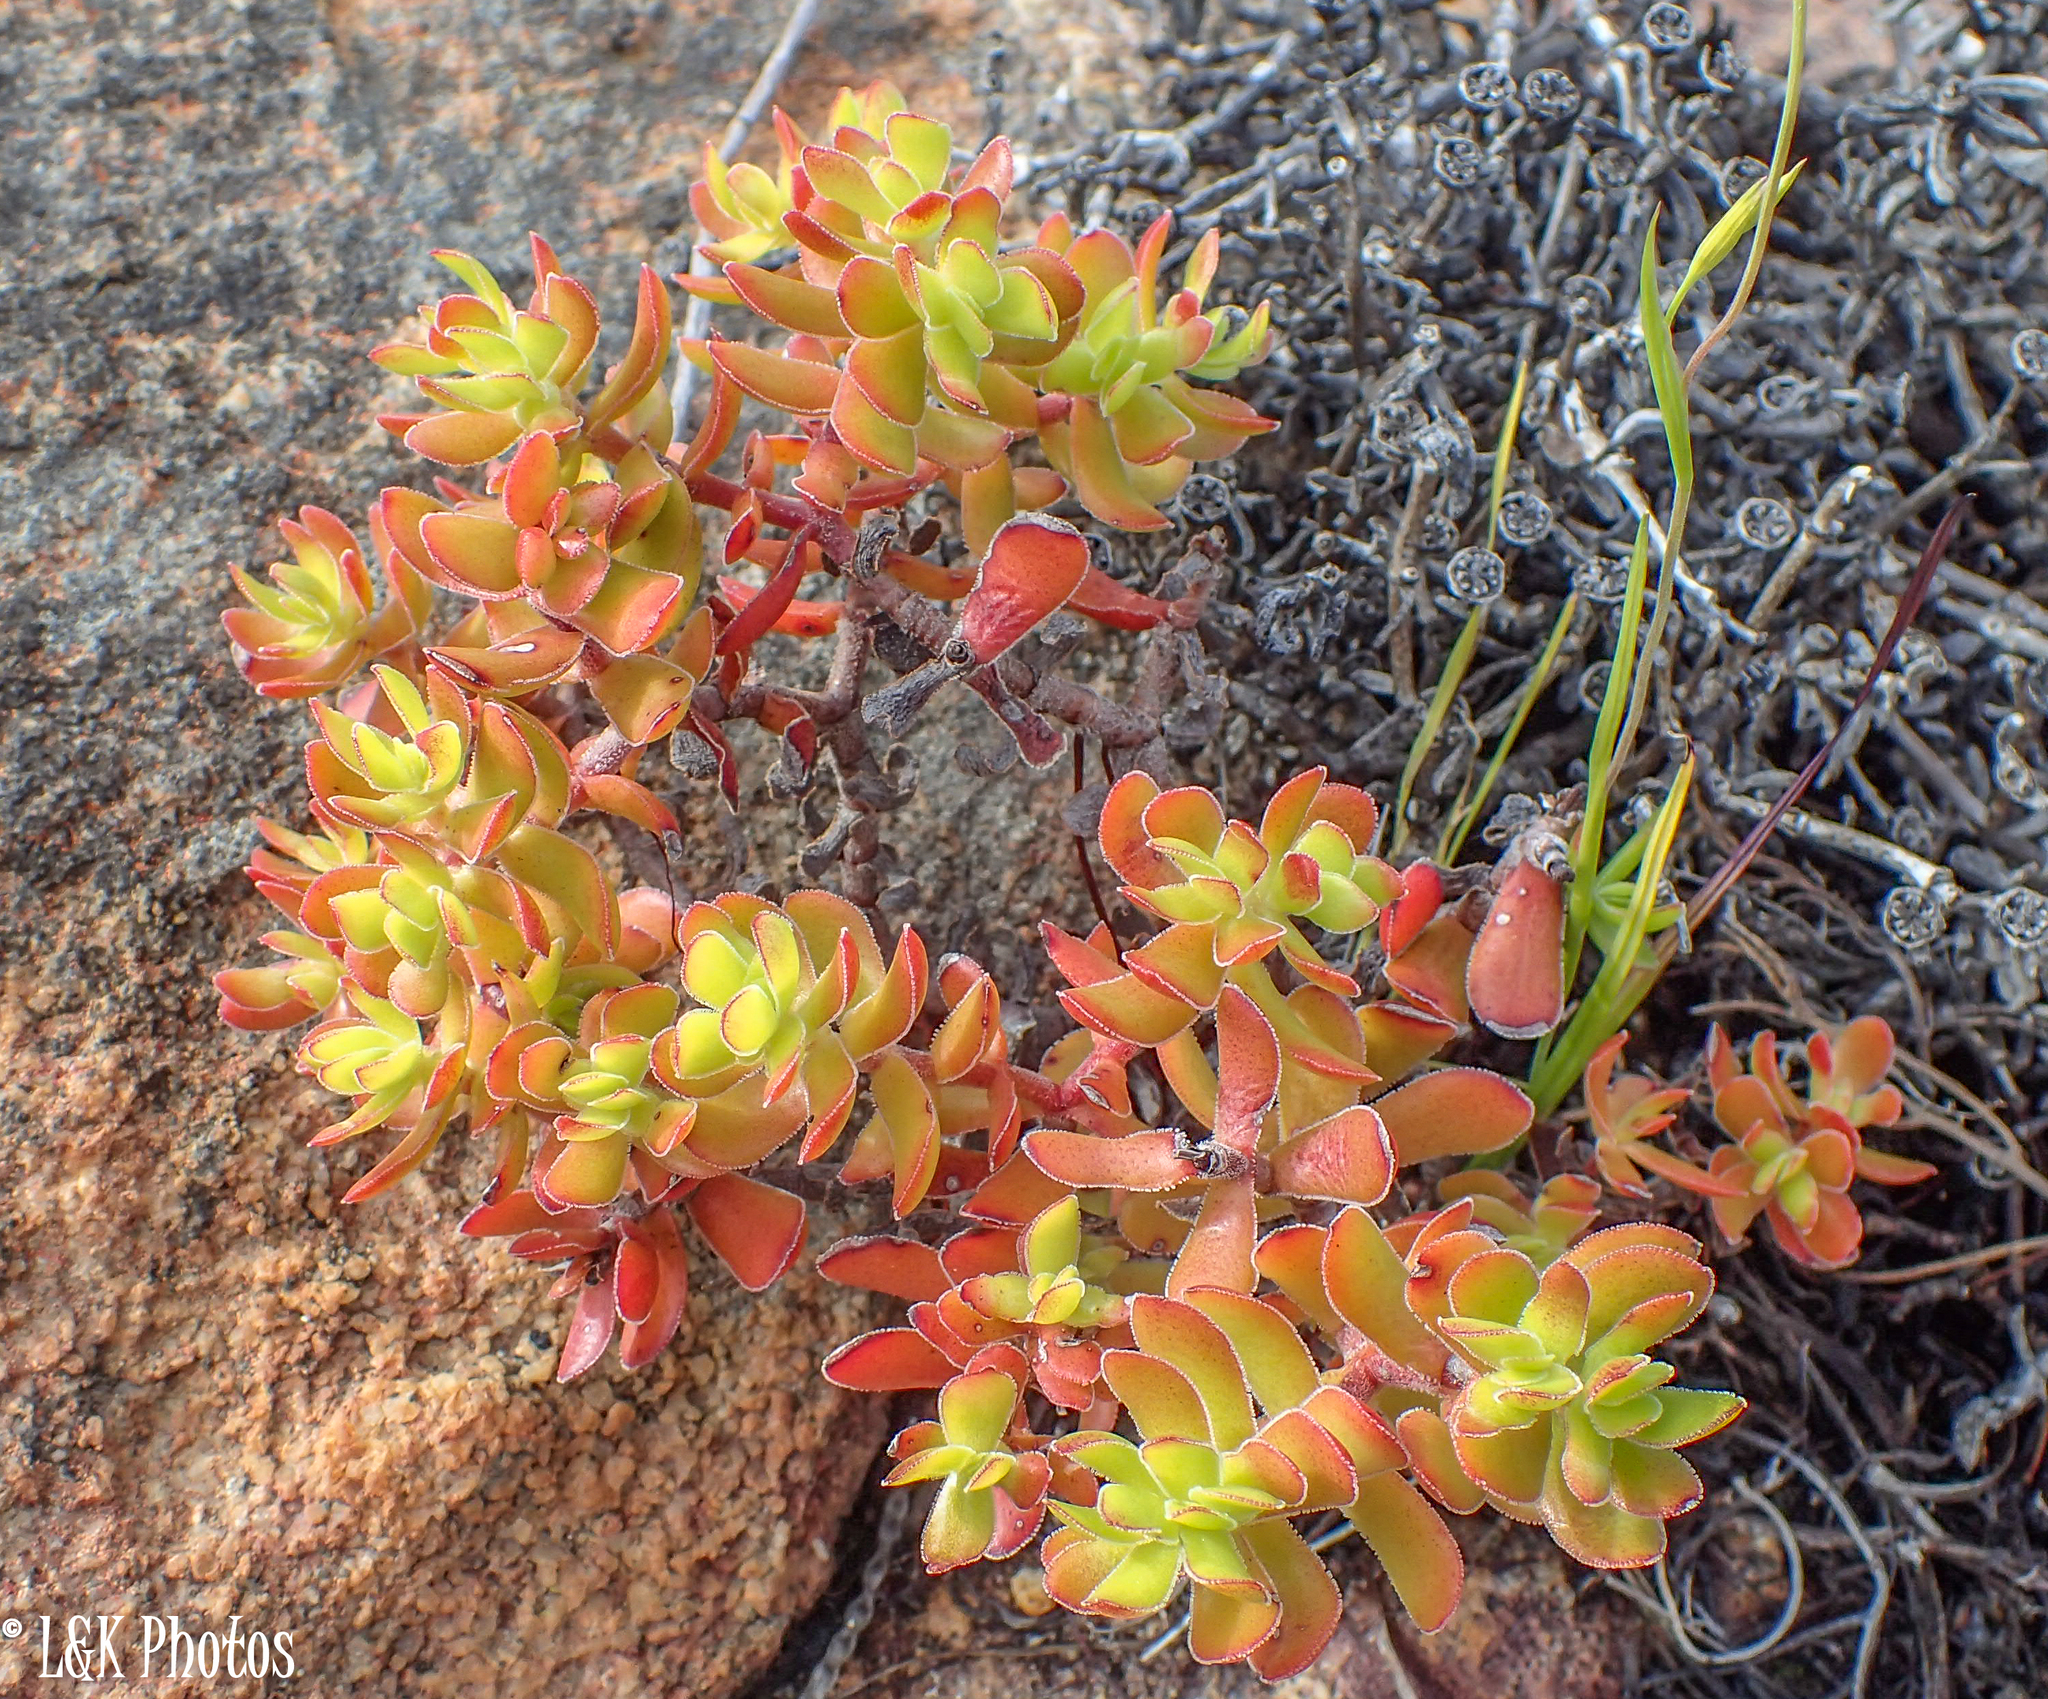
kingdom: Plantae
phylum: Tracheophyta
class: Magnoliopsida
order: Saxifragales
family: Crassulaceae
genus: Crassula
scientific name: Crassula undulata
